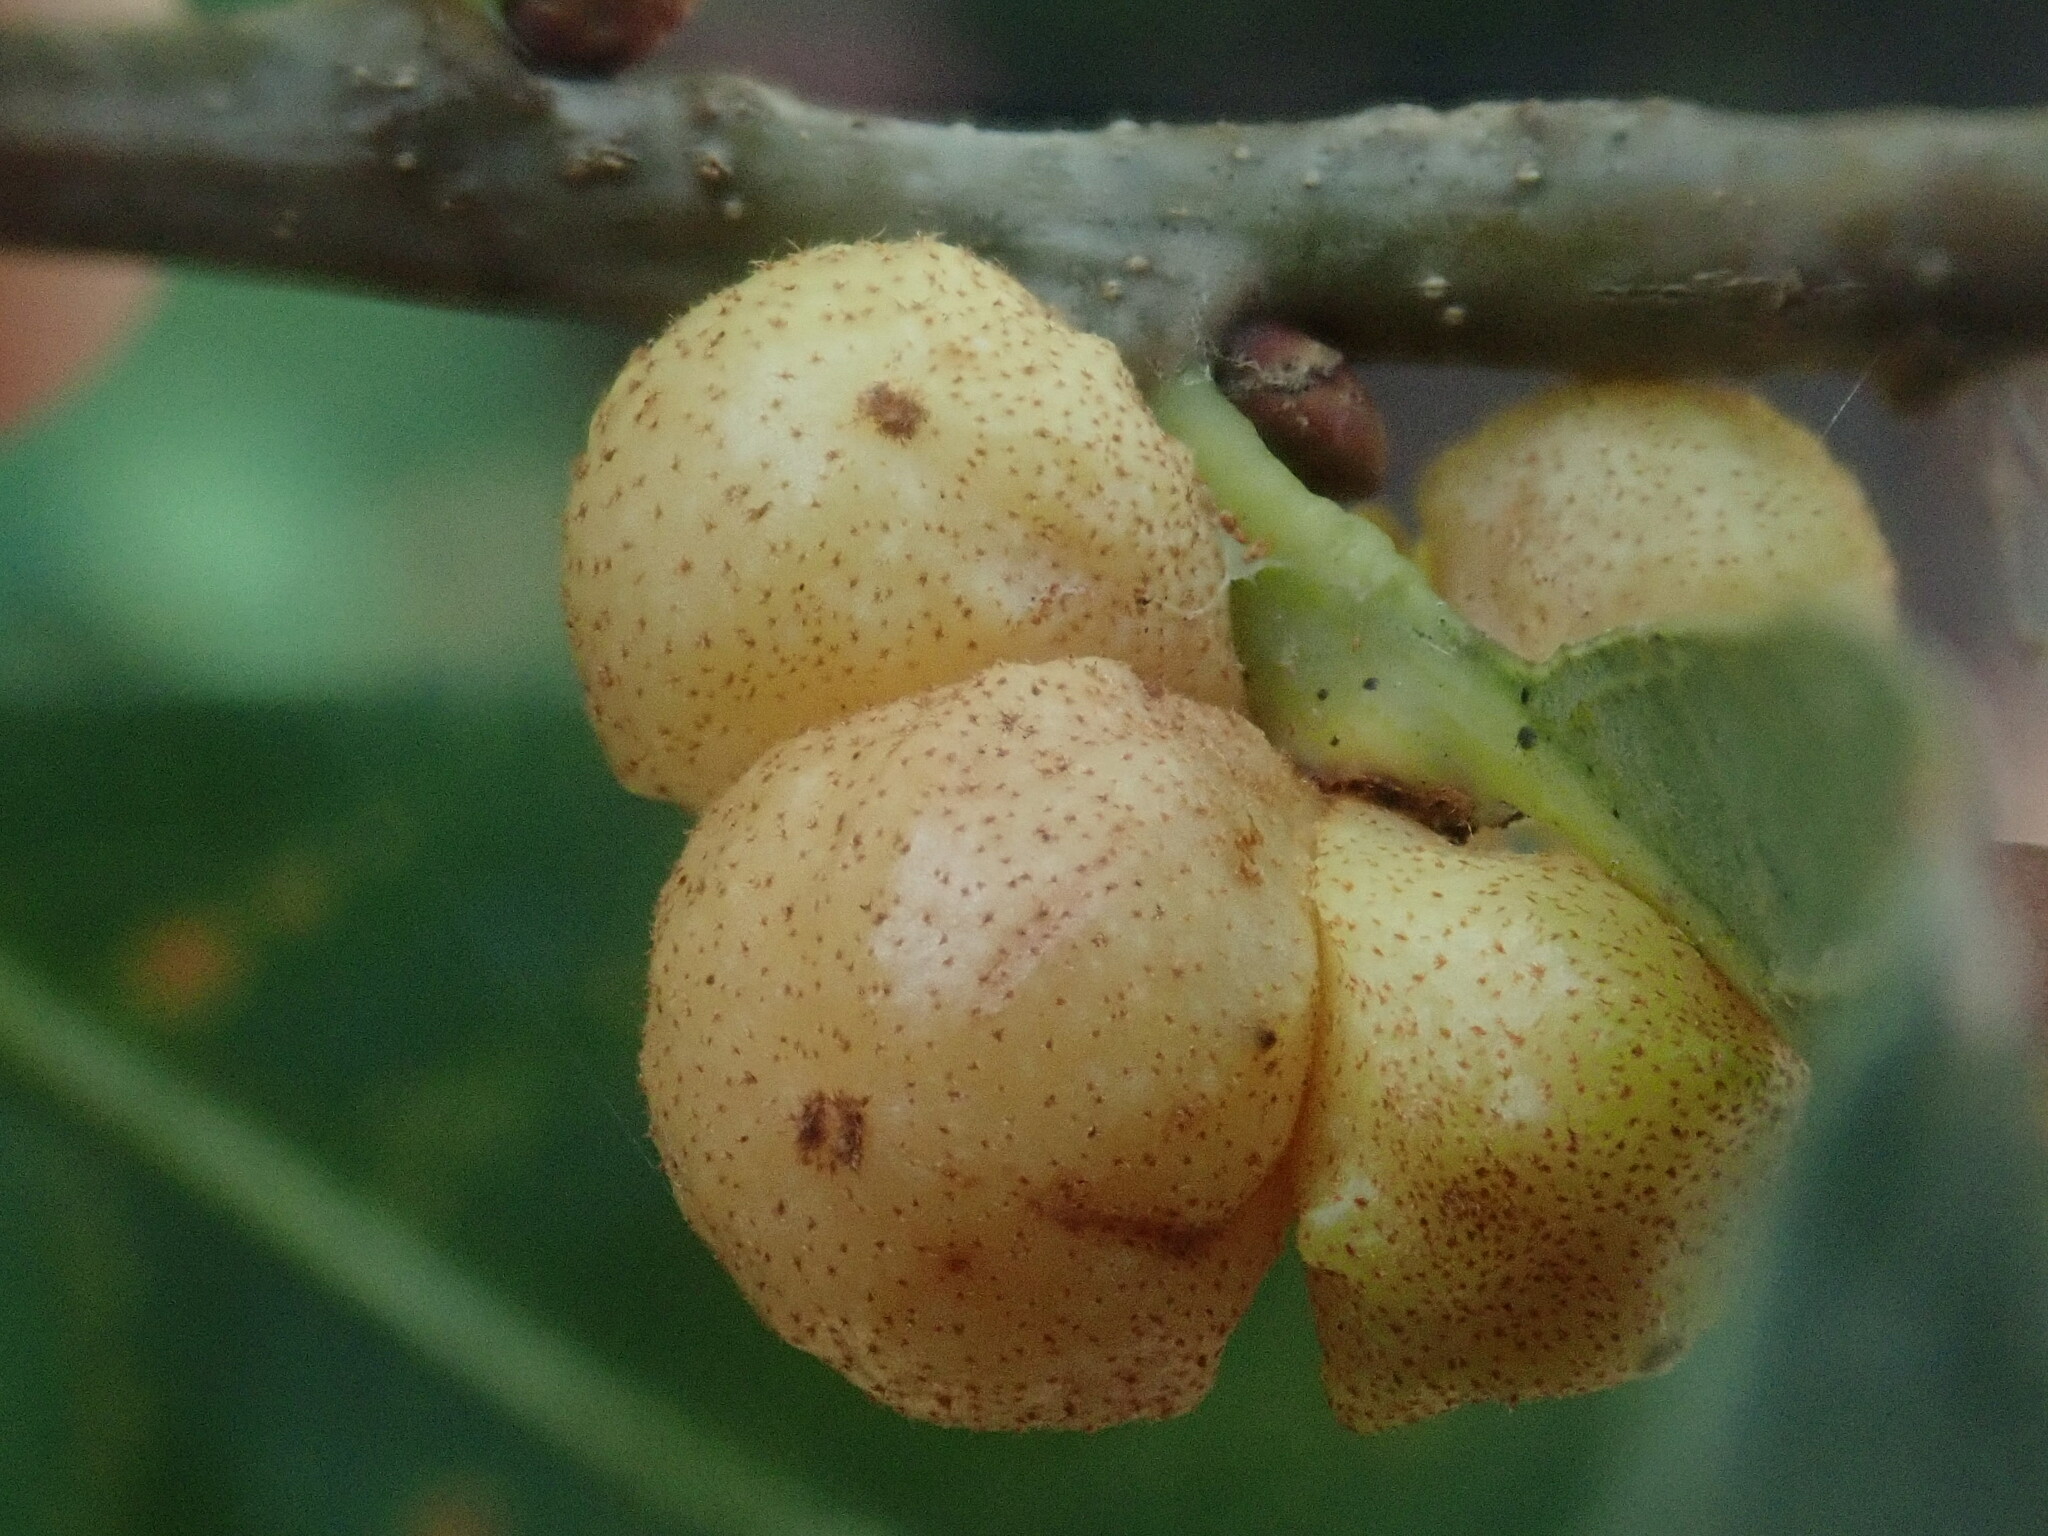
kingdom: Animalia
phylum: Arthropoda
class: Insecta
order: Hymenoptera
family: Cynipidae
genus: Andricus
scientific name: Andricus
